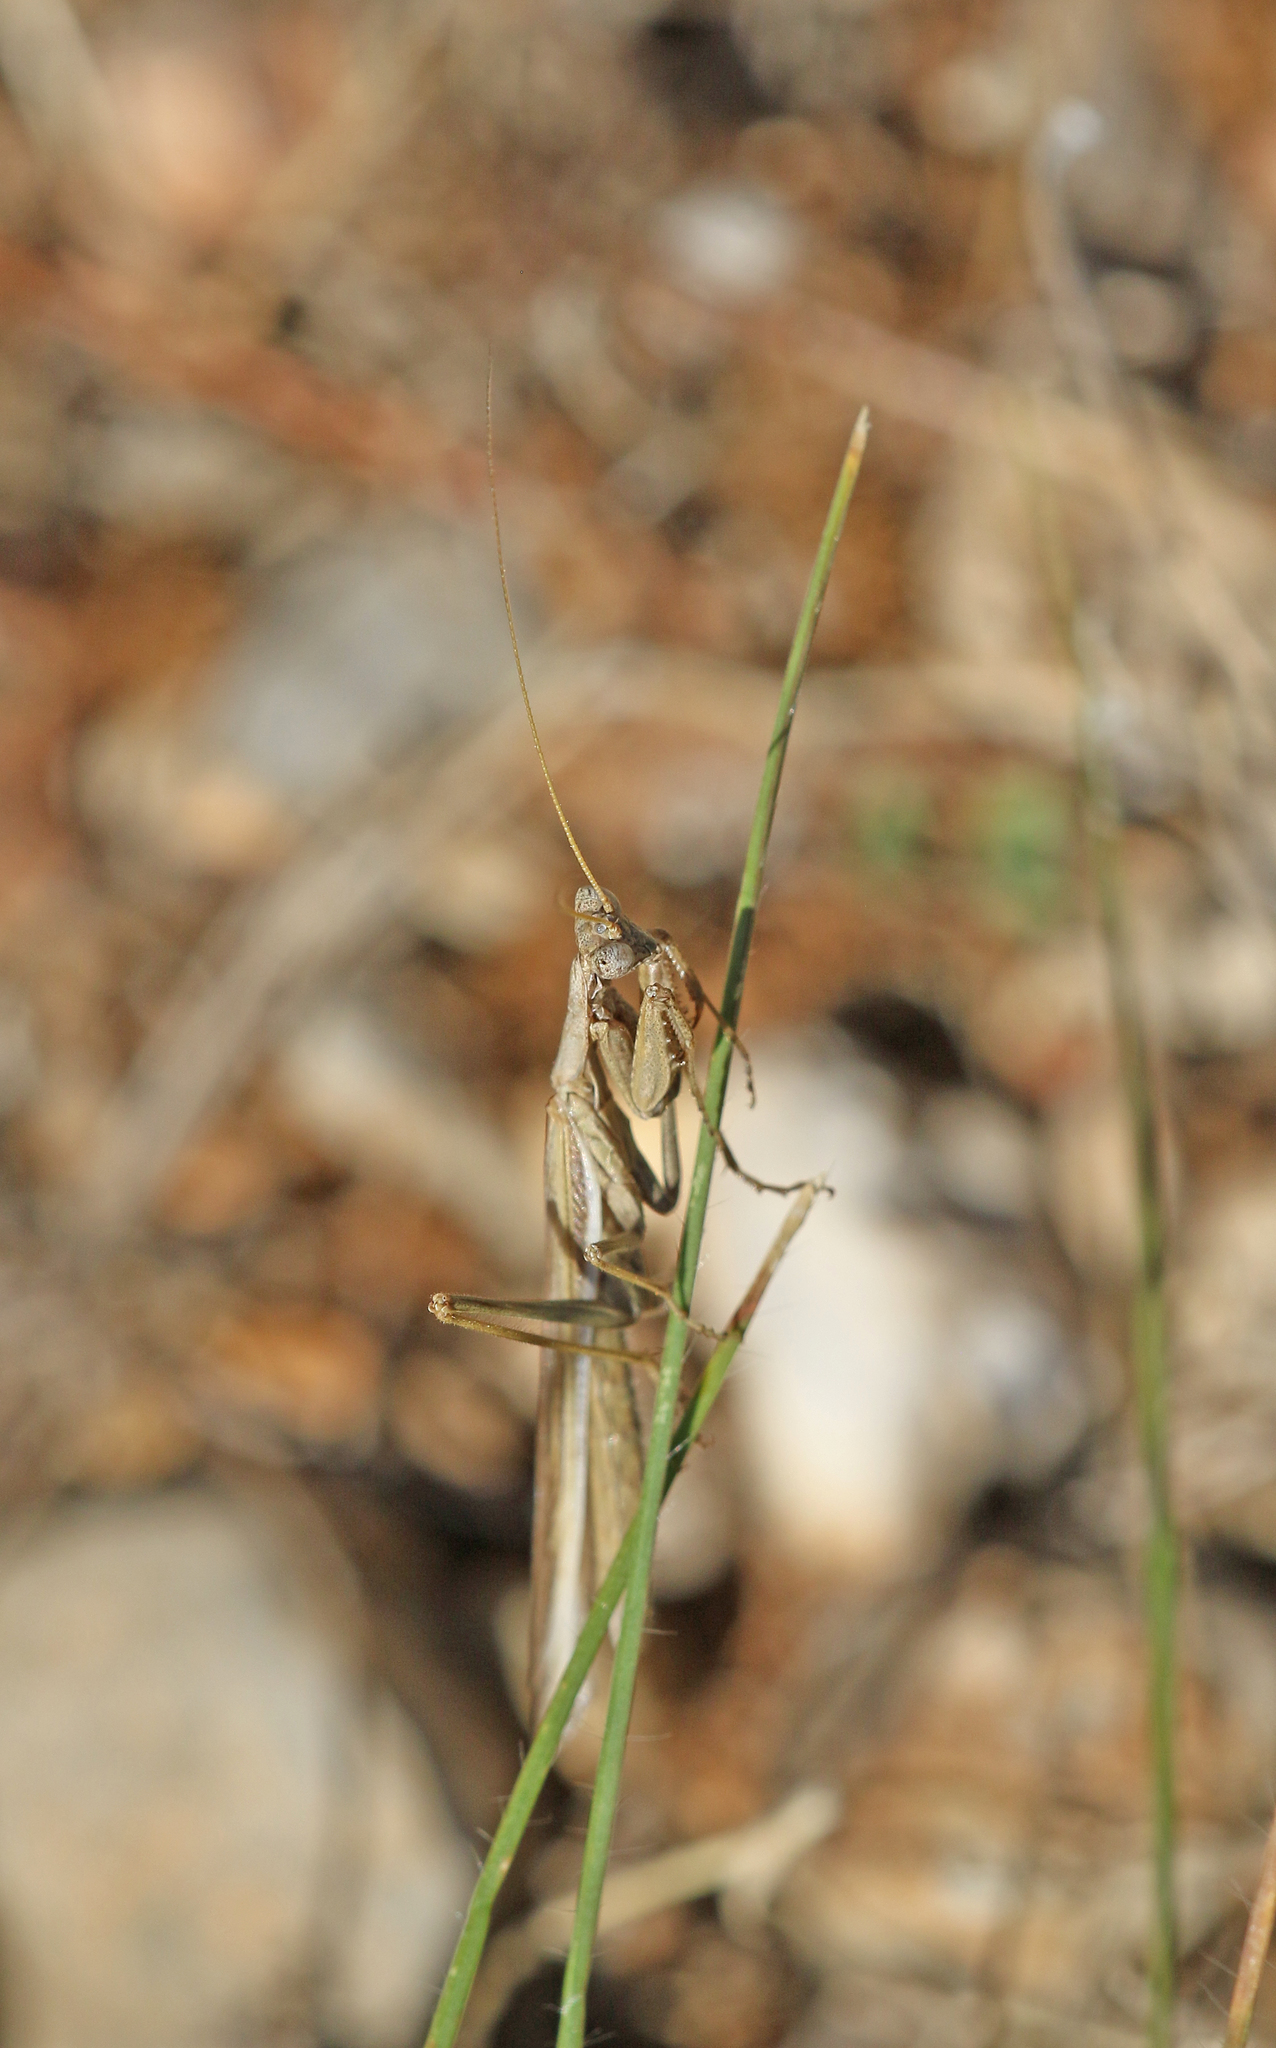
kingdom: Animalia
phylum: Arthropoda
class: Insecta
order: Mantodea
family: Amelidae
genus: Ameles
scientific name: Ameles decolor
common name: Dwarf mantis
